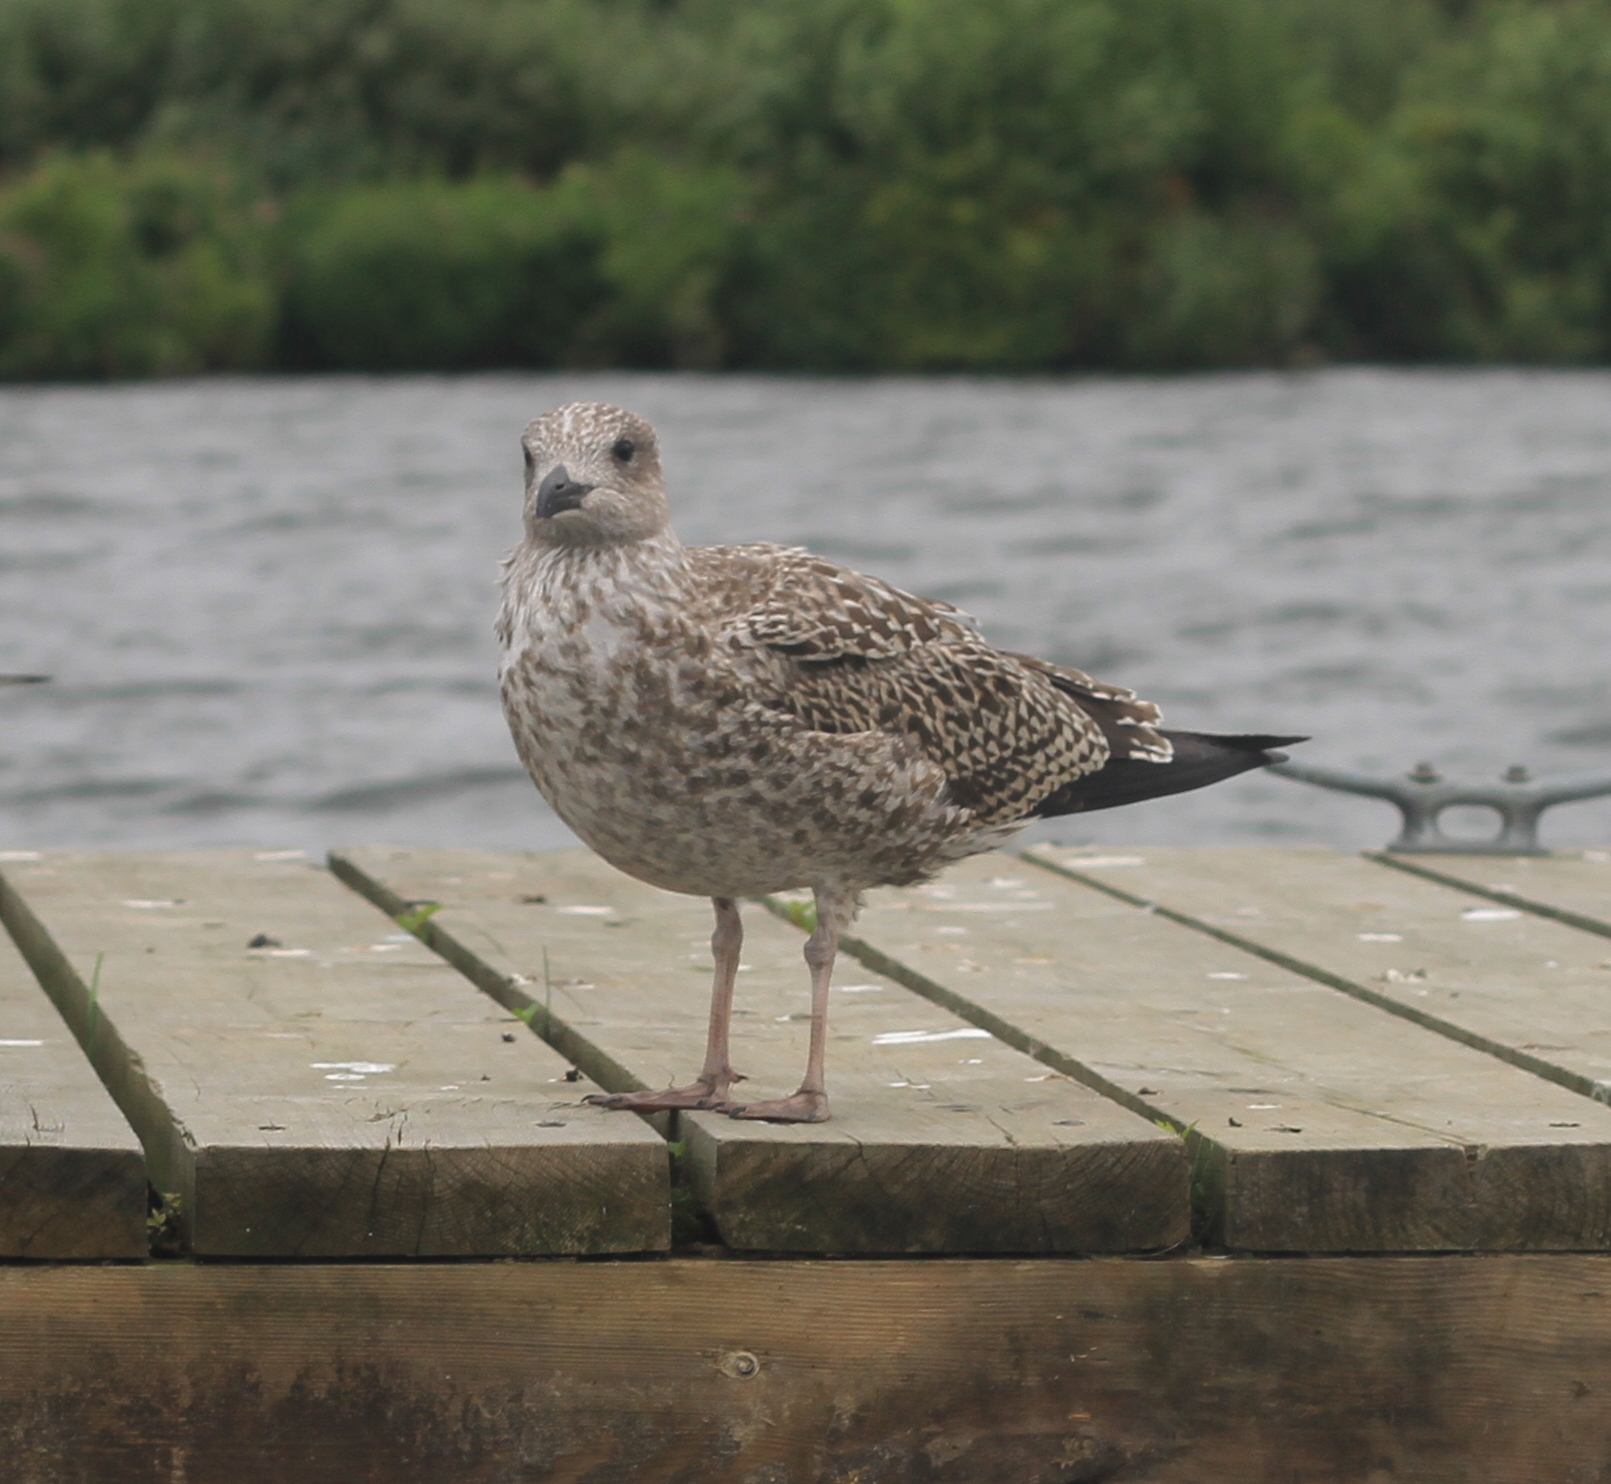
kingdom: Animalia
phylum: Chordata
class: Aves
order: Charadriiformes
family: Laridae
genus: Larus
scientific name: Larus argentatus
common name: Herring gull
